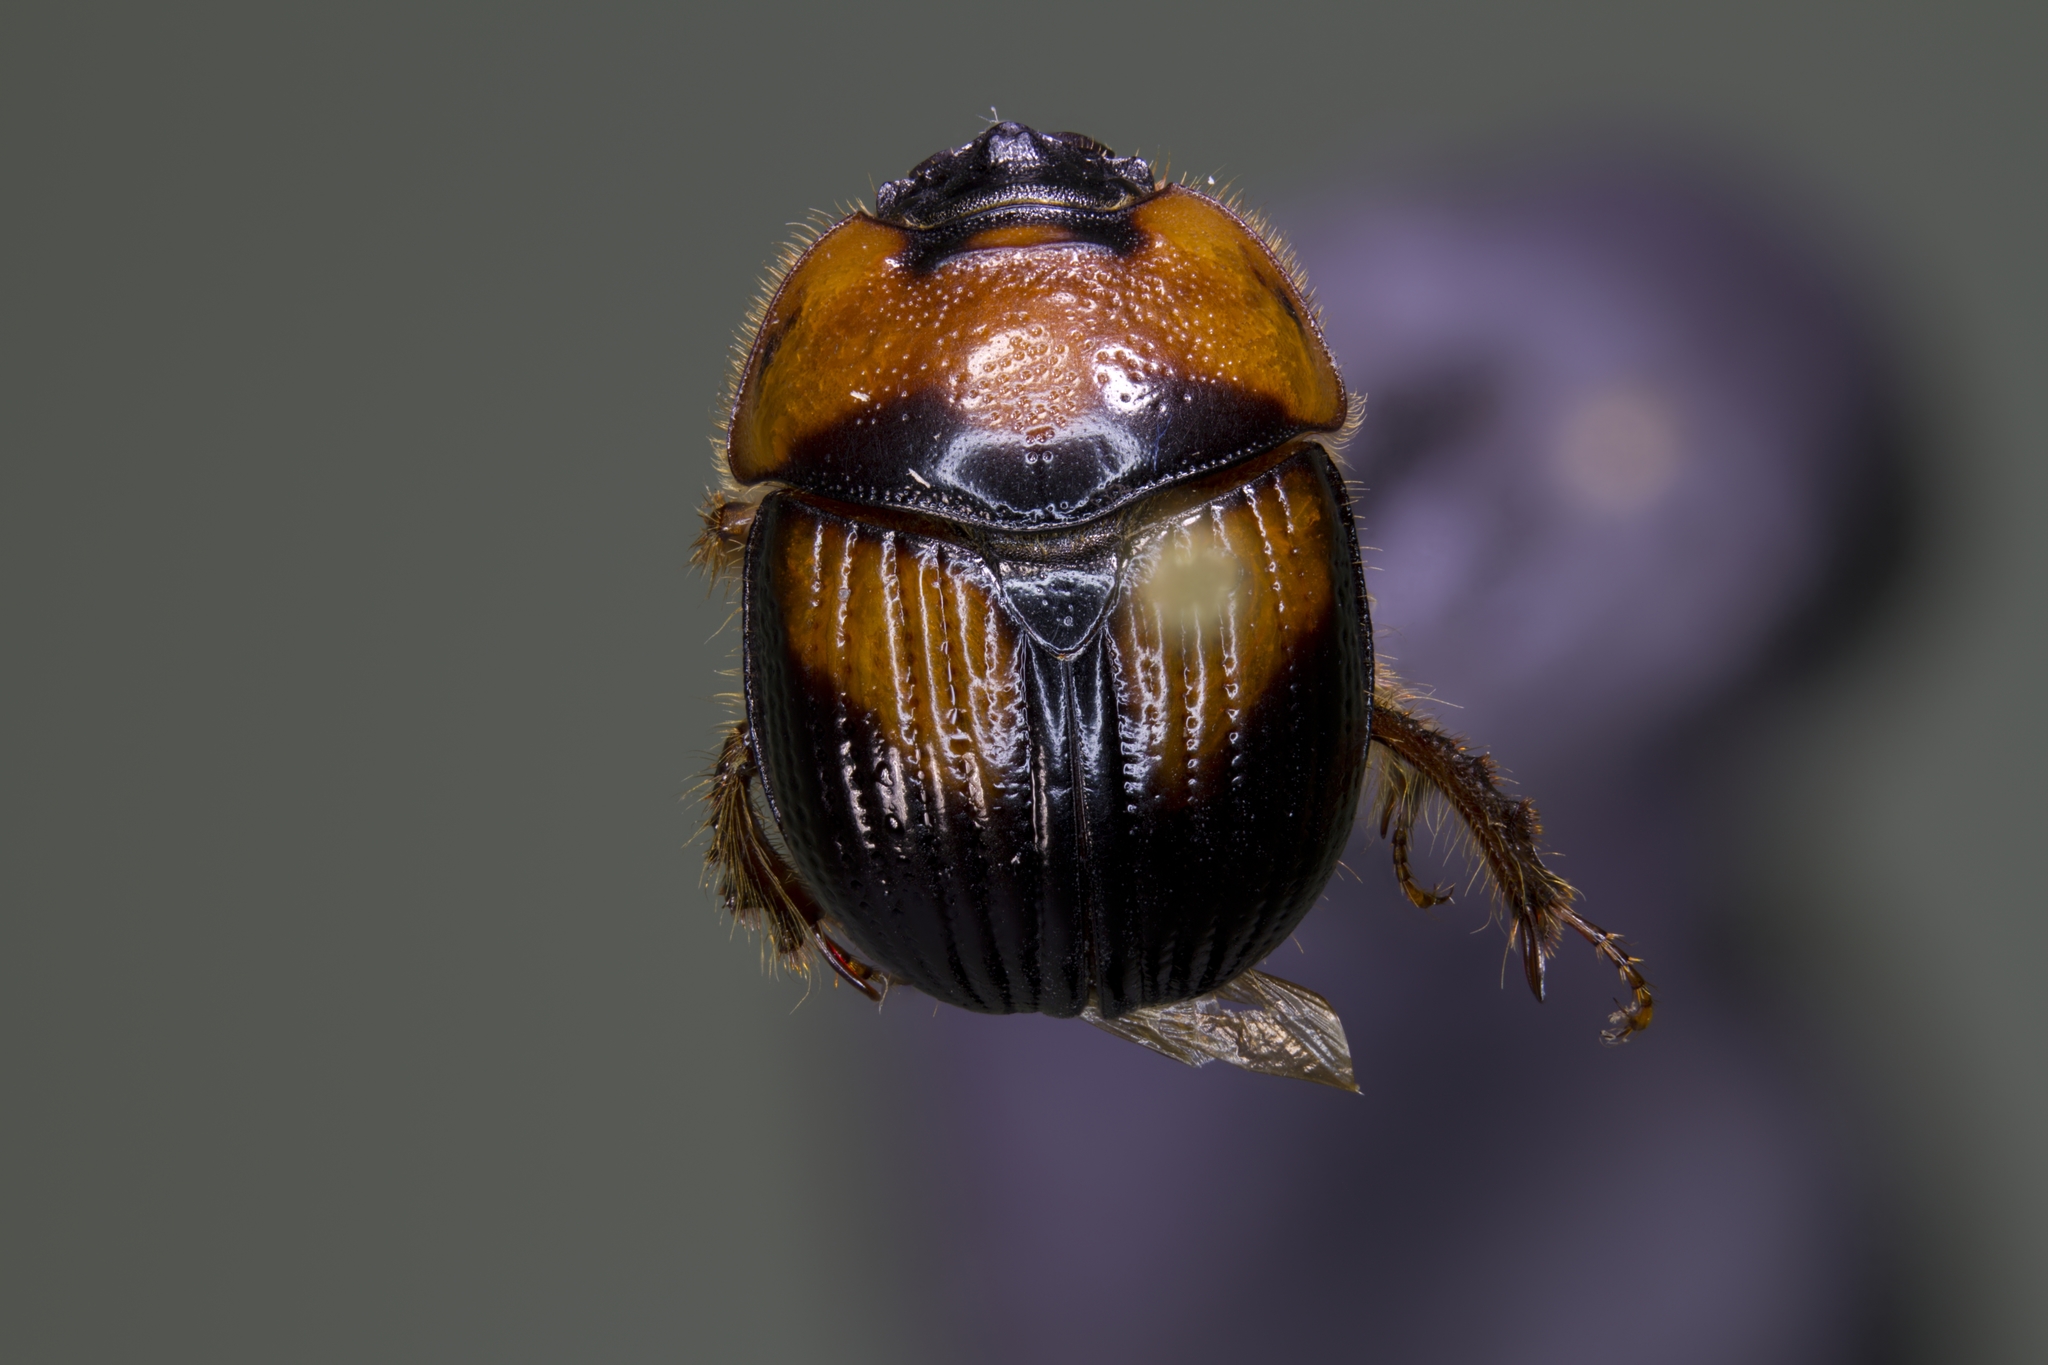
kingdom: Animalia
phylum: Arthropoda
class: Insecta
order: Coleoptera
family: Geotrupidae
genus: Bolbocerosoma
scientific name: Bolbocerosoma farctum
